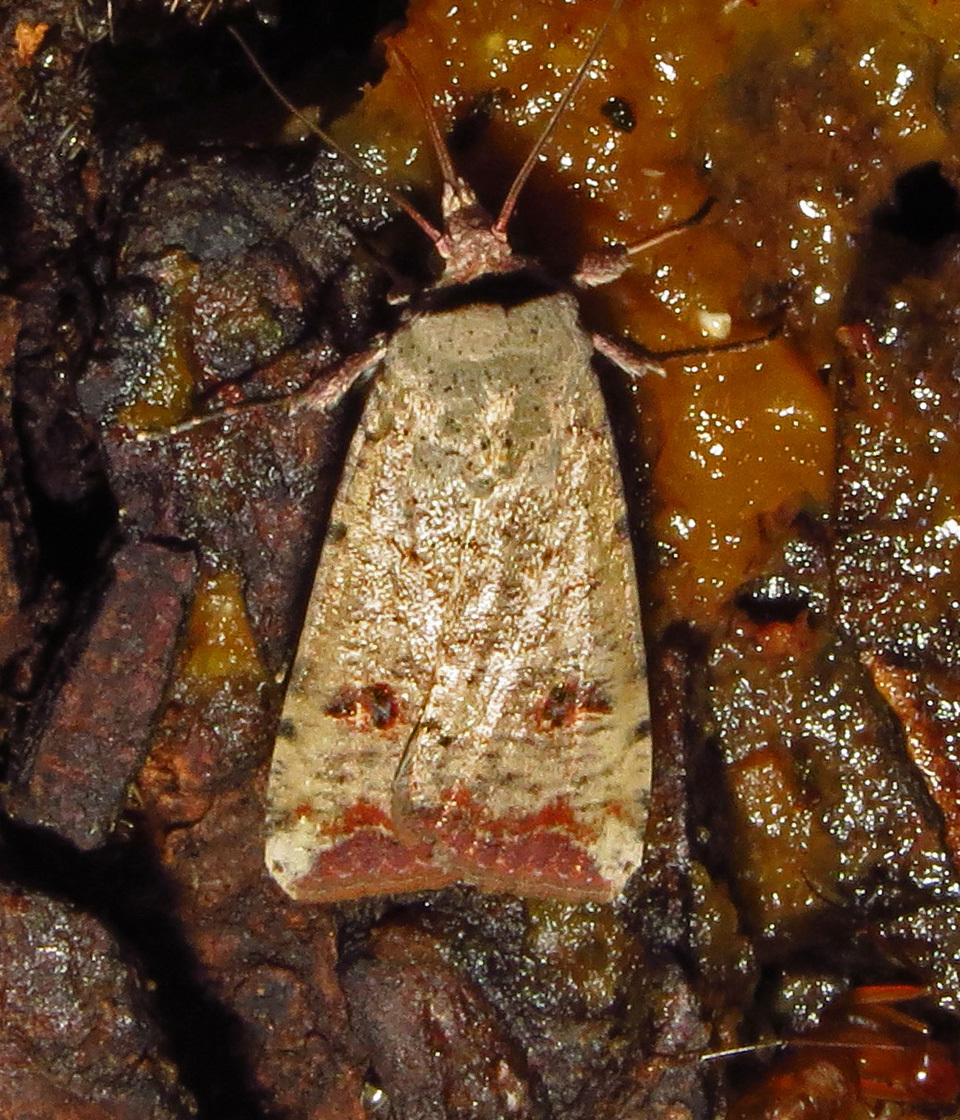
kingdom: Animalia
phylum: Arthropoda
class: Insecta
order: Lepidoptera
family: Noctuidae
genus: Anicla
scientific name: Anicla infecta
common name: Green cutworm
